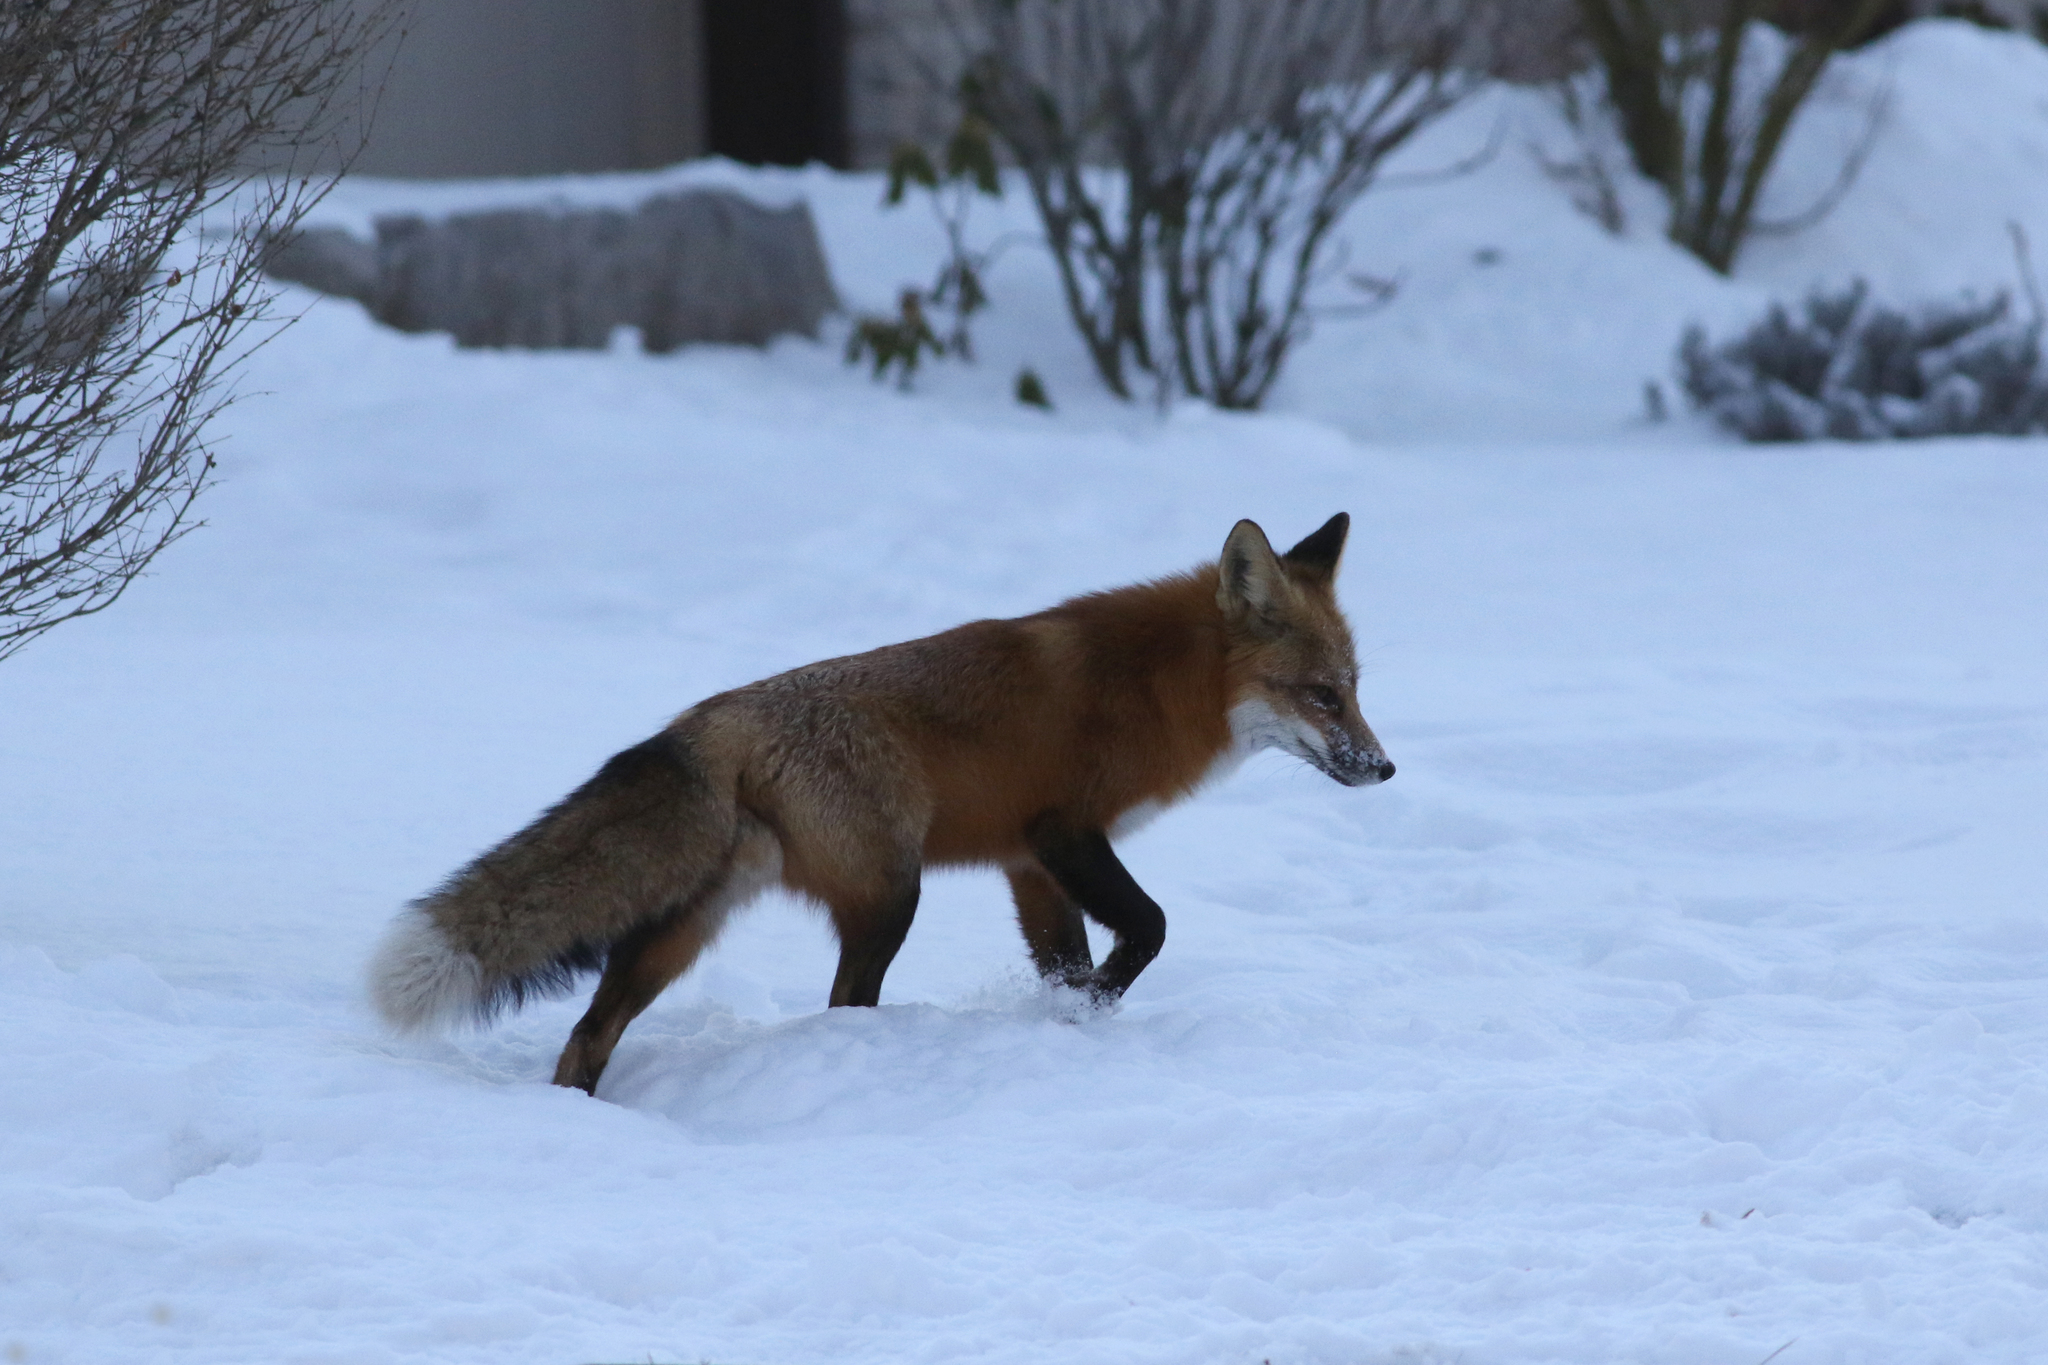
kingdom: Animalia
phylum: Chordata
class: Mammalia
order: Carnivora
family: Canidae
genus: Vulpes
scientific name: Vulpes vulpes
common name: Red fox
